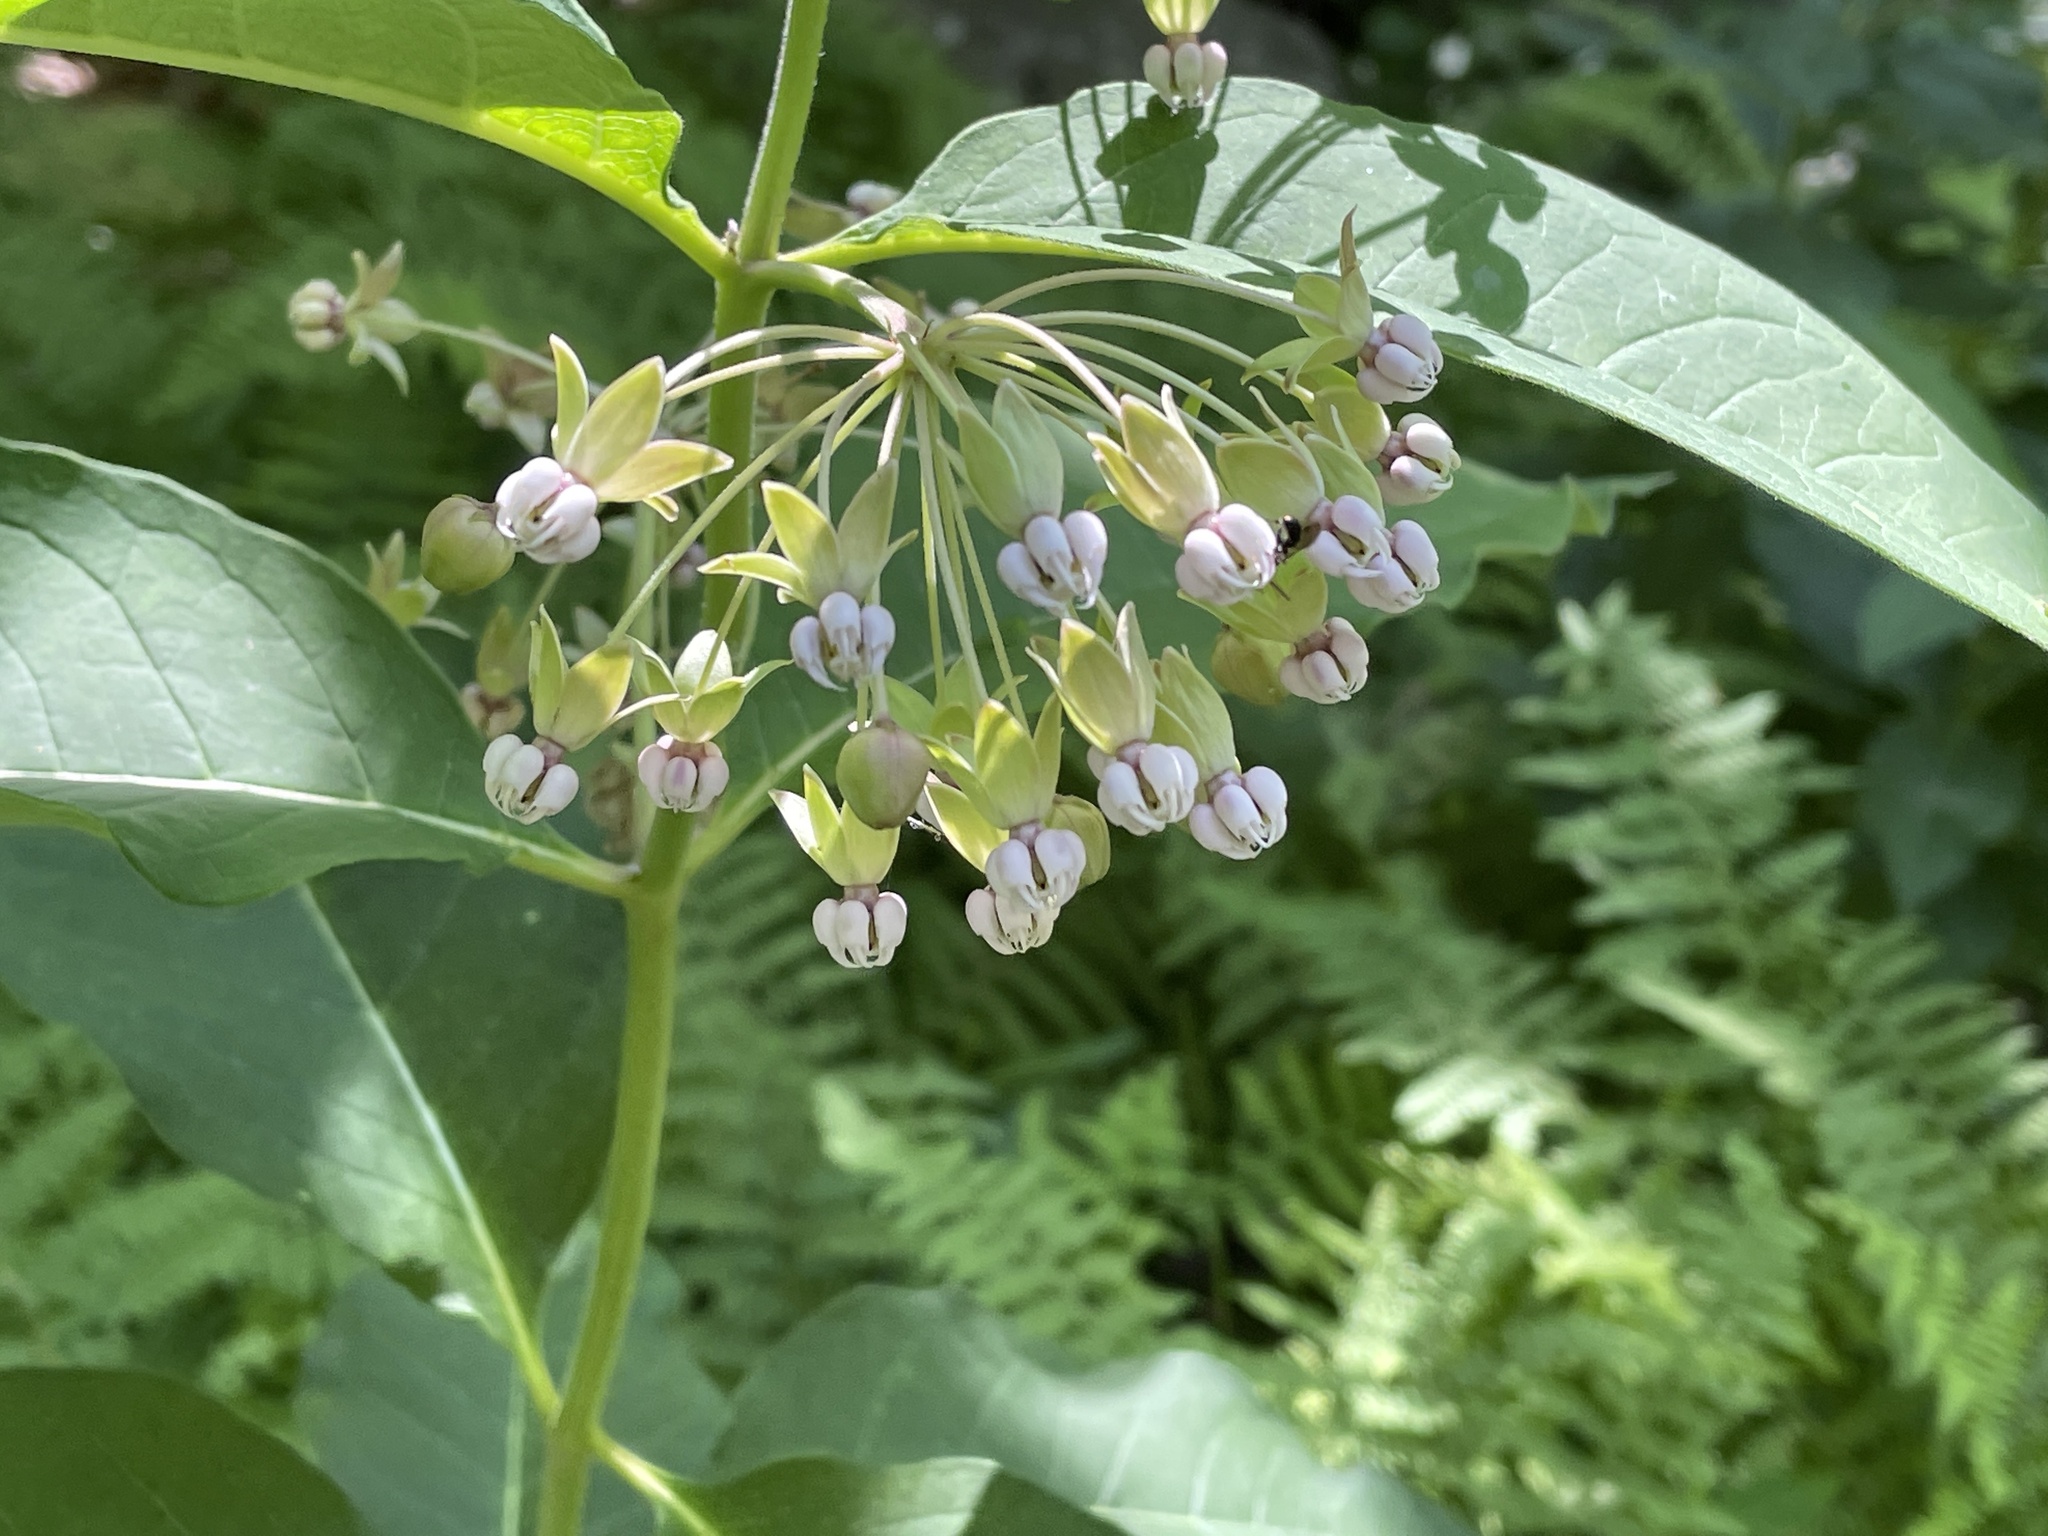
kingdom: Plantae
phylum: Tracheophyta
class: Magnoliopsida
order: Gentianales
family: Apocynaceae
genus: Asclepias
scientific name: Asclepias exaltata
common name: Poke milkweed
